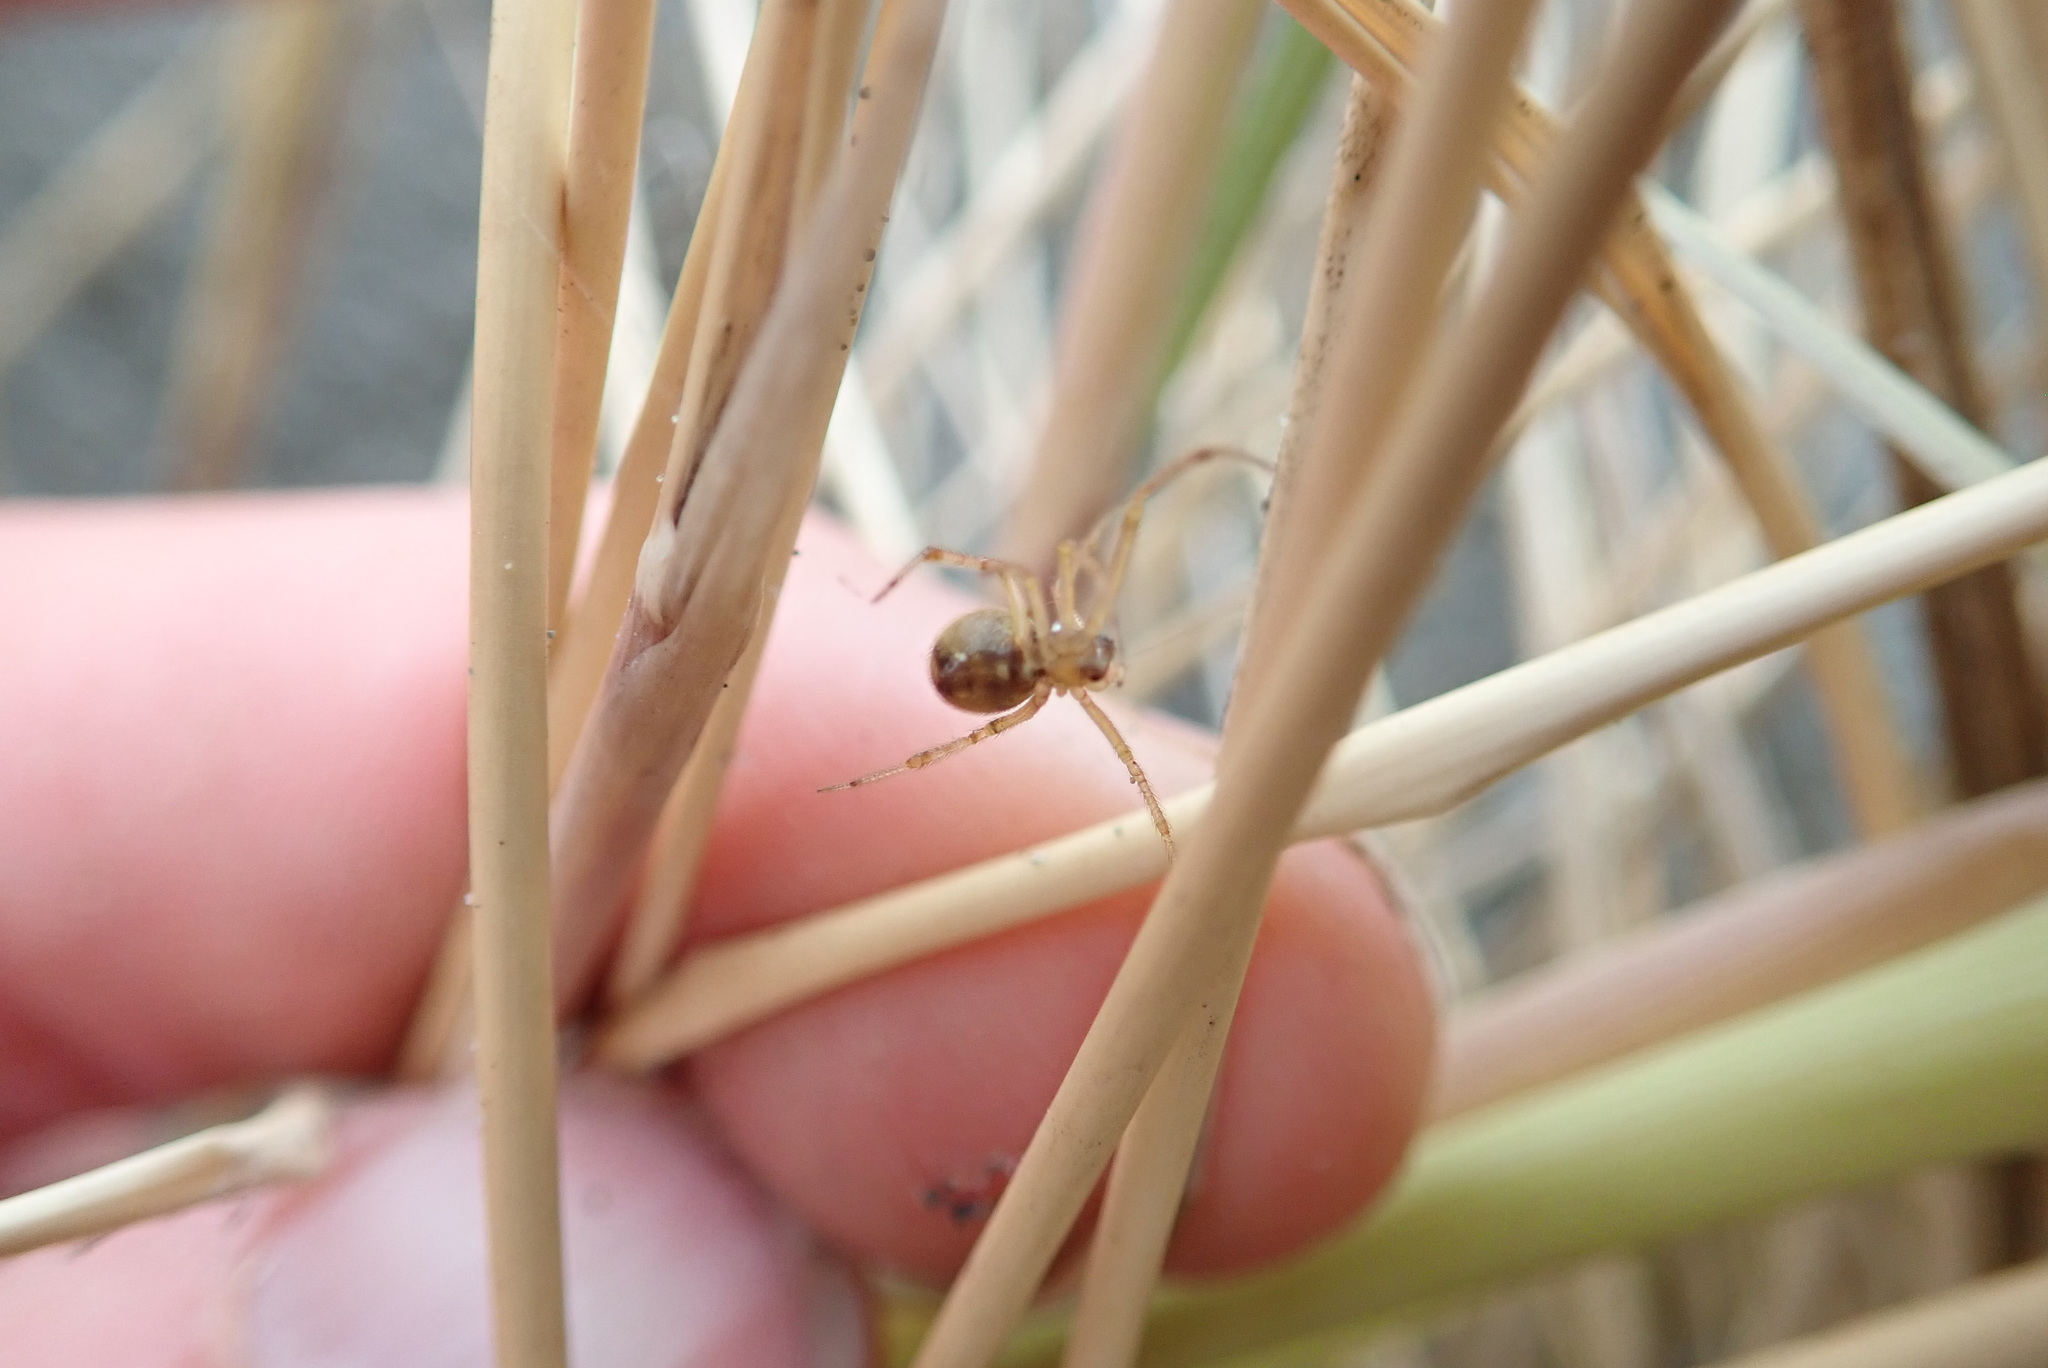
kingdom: Animalia
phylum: Arthropoda
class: Arachnida
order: Araneae
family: Theridiidae
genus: Cryptachaea
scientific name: Cryptachaea veruculata
